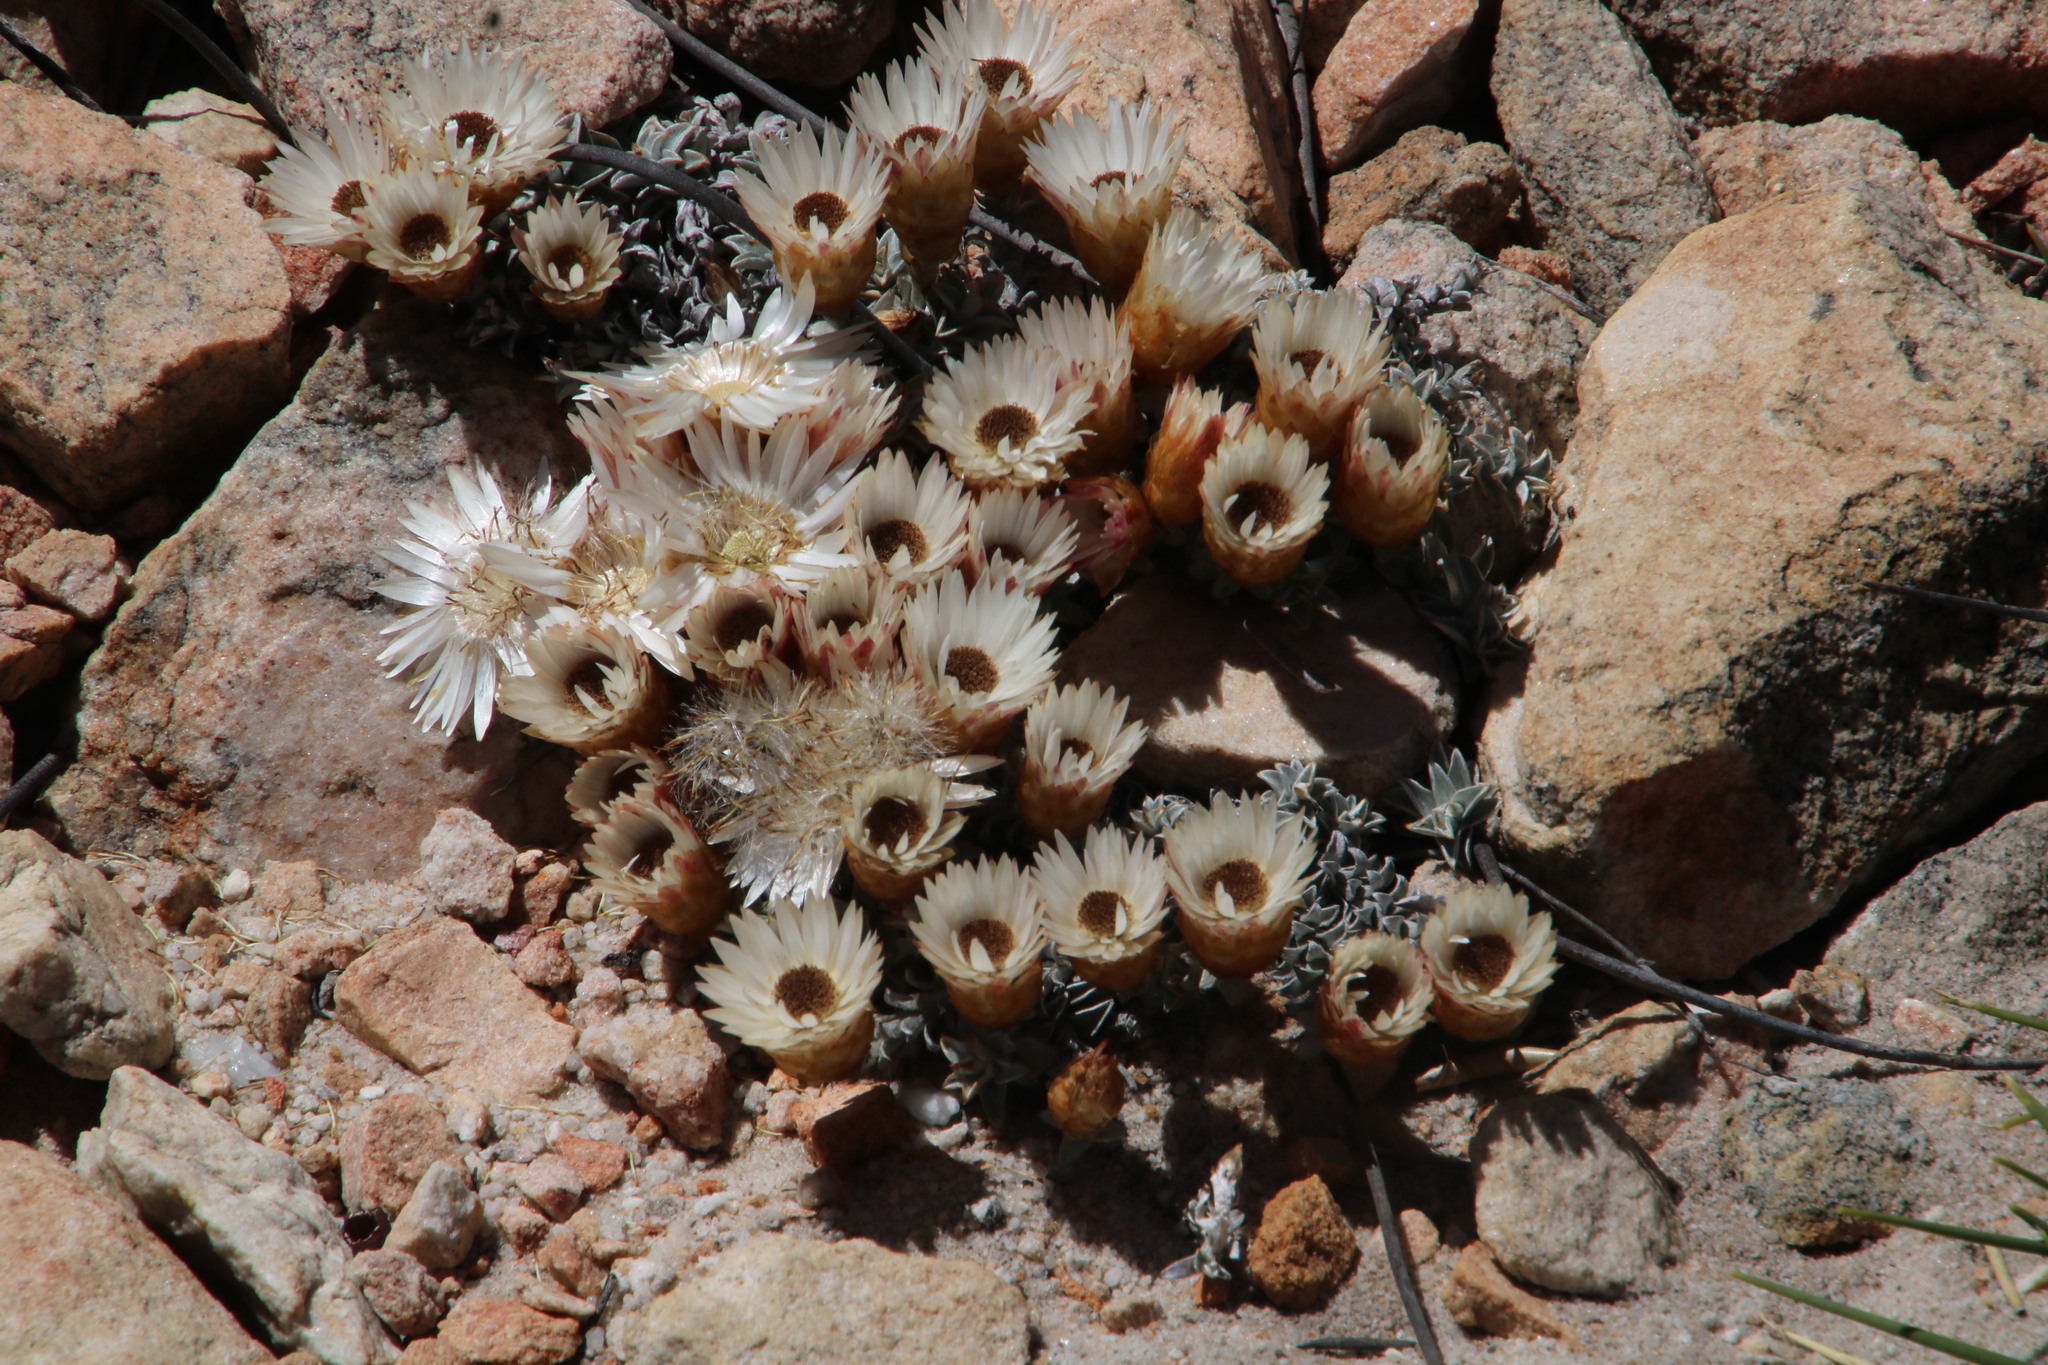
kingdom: Plantae
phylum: Tracheophyta
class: Magnoliopsida
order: Asterales
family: Asteraceae
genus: Helichrysum
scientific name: Helichrysum stoloniferum
